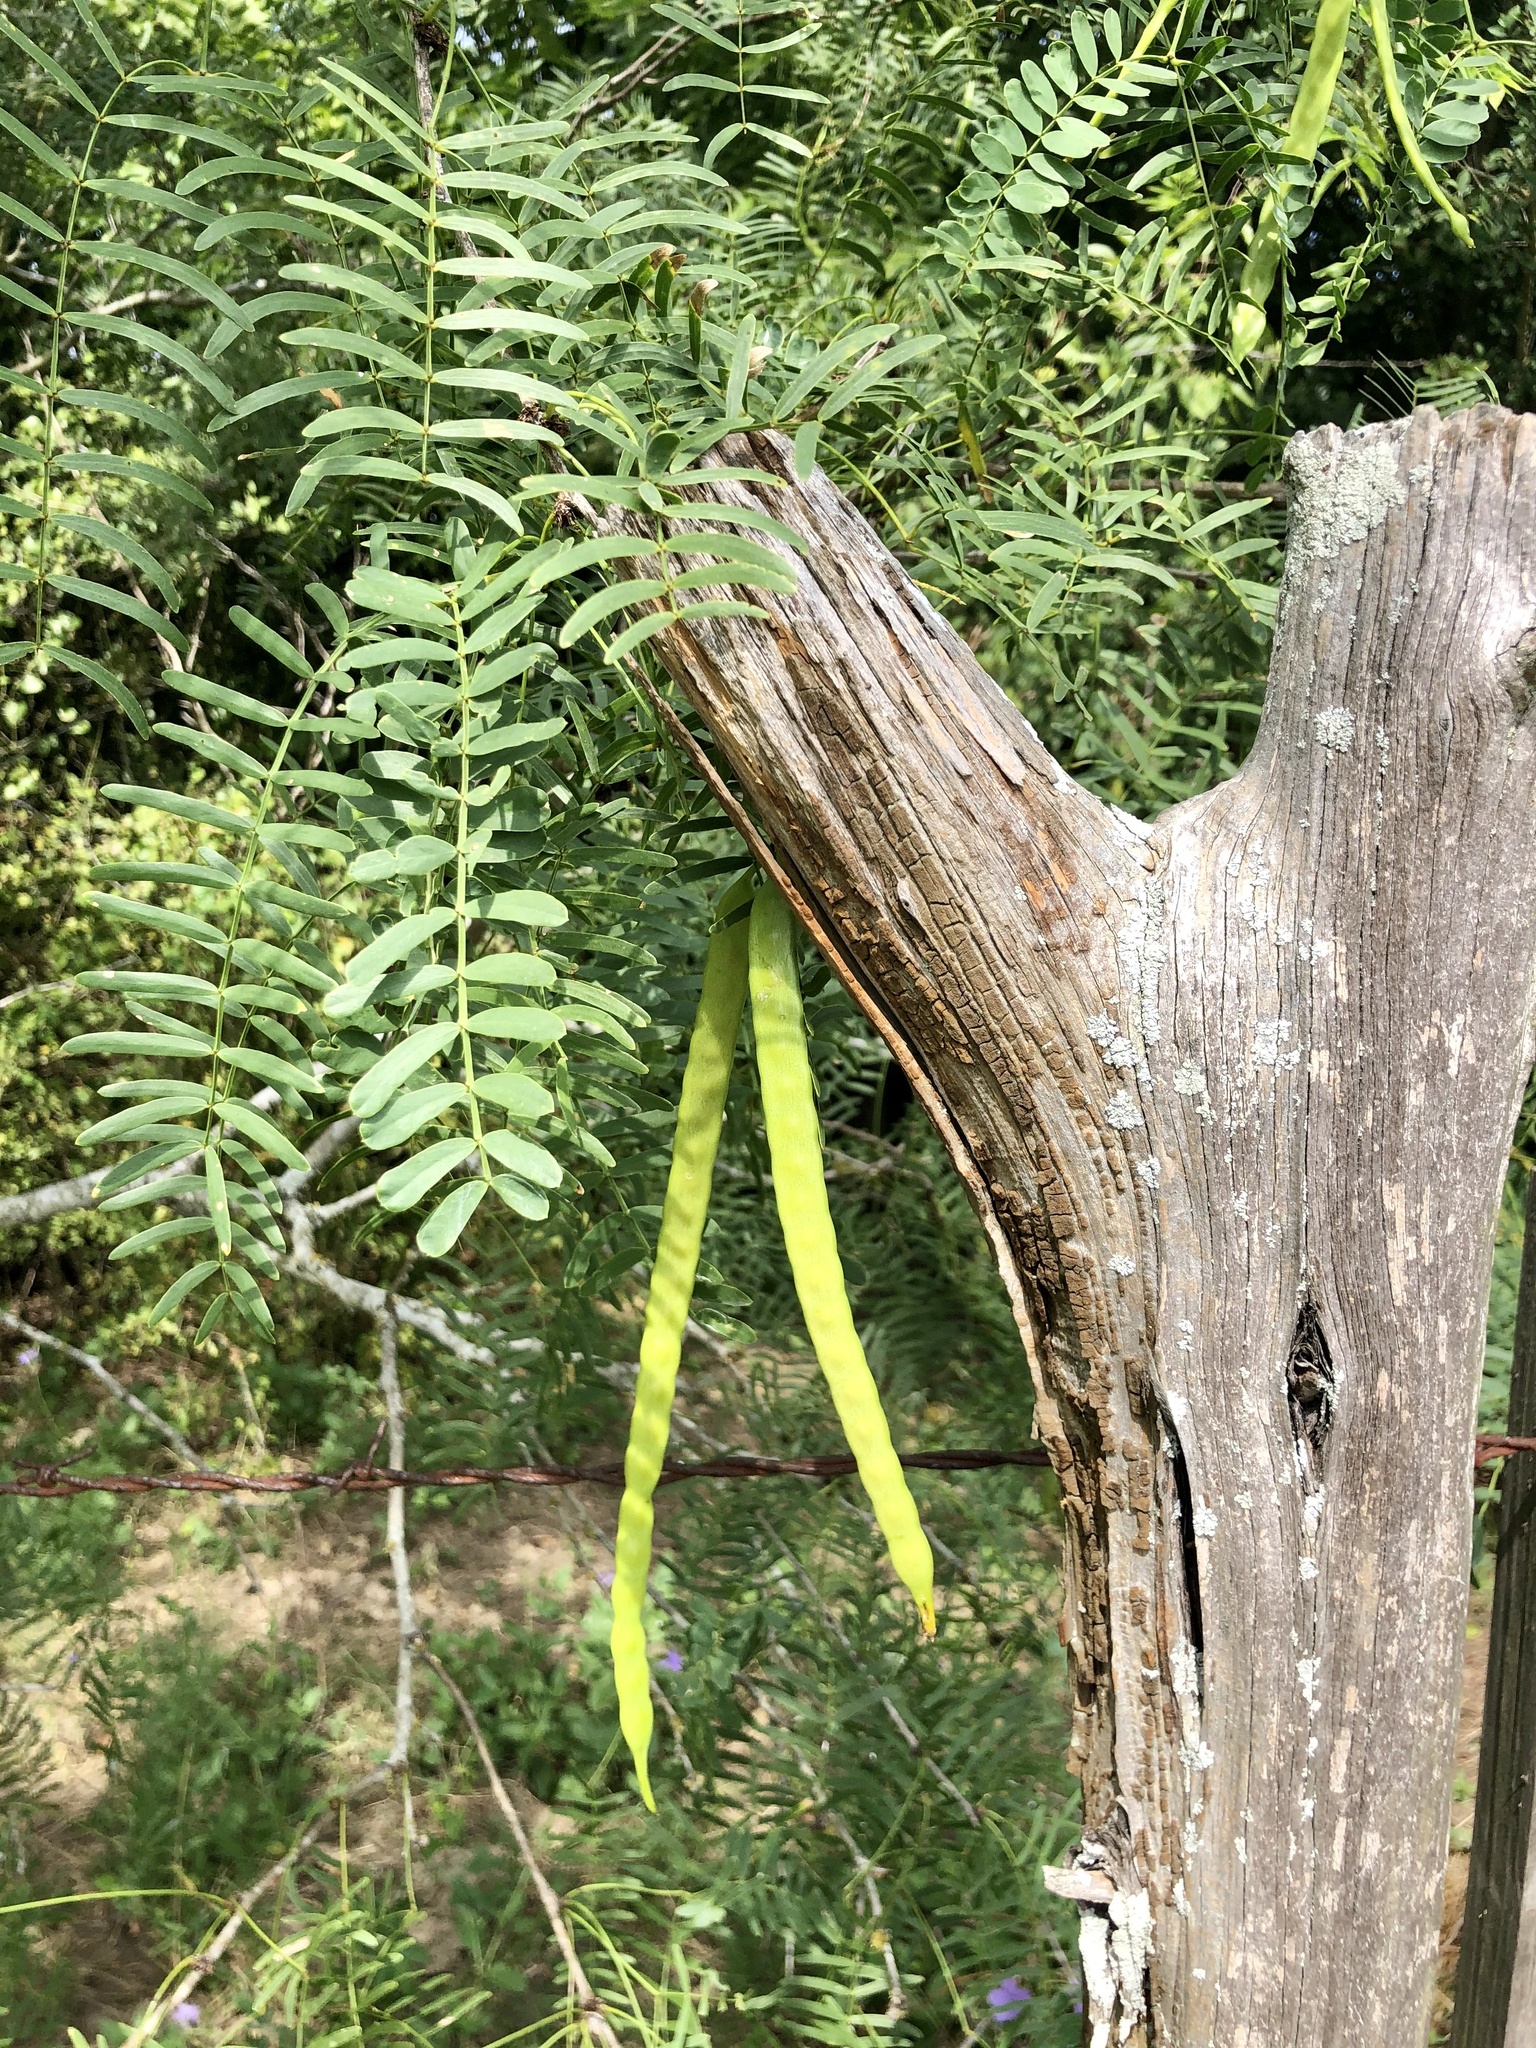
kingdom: Plantae
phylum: Tracheophyta
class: Magnoliopsida
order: Fabales
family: Fabaceae
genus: Prosopis
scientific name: Prosopis glandulosa
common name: Honey mesquite
